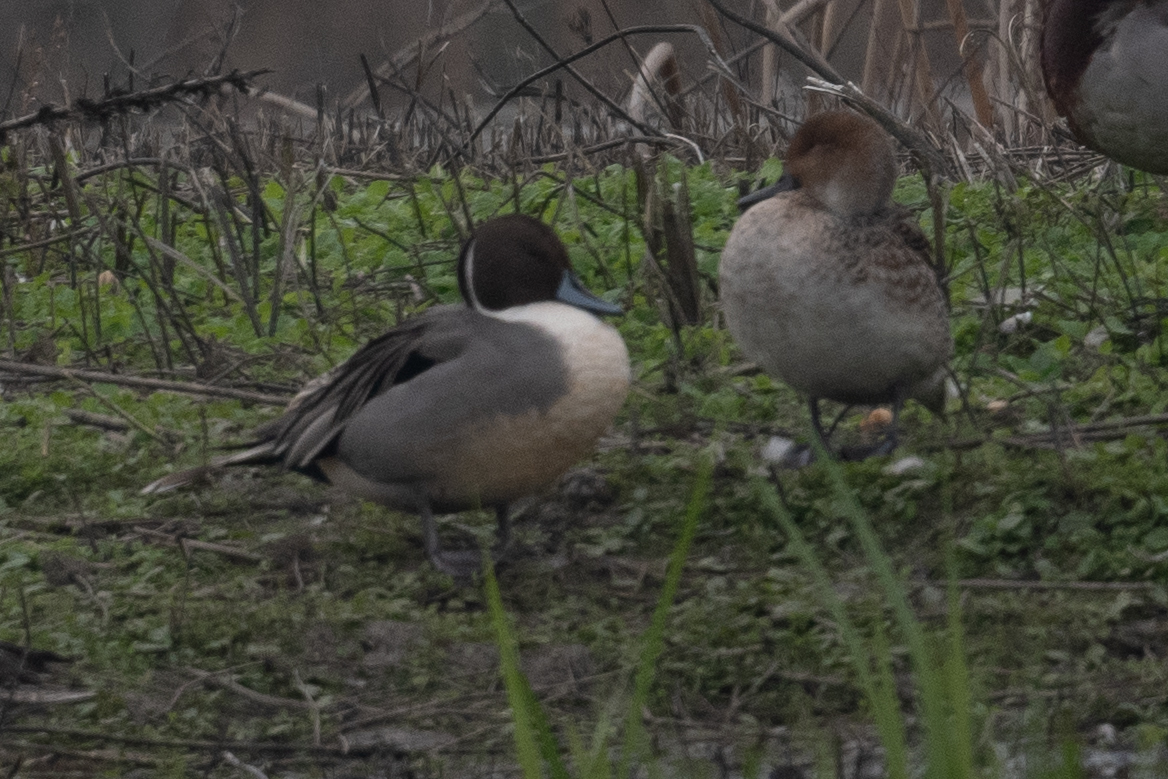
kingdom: Animalia
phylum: Chordata
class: Aves
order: Anseriformes
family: Anatidae
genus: Anas
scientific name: Anas acuta
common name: Northern pintail
